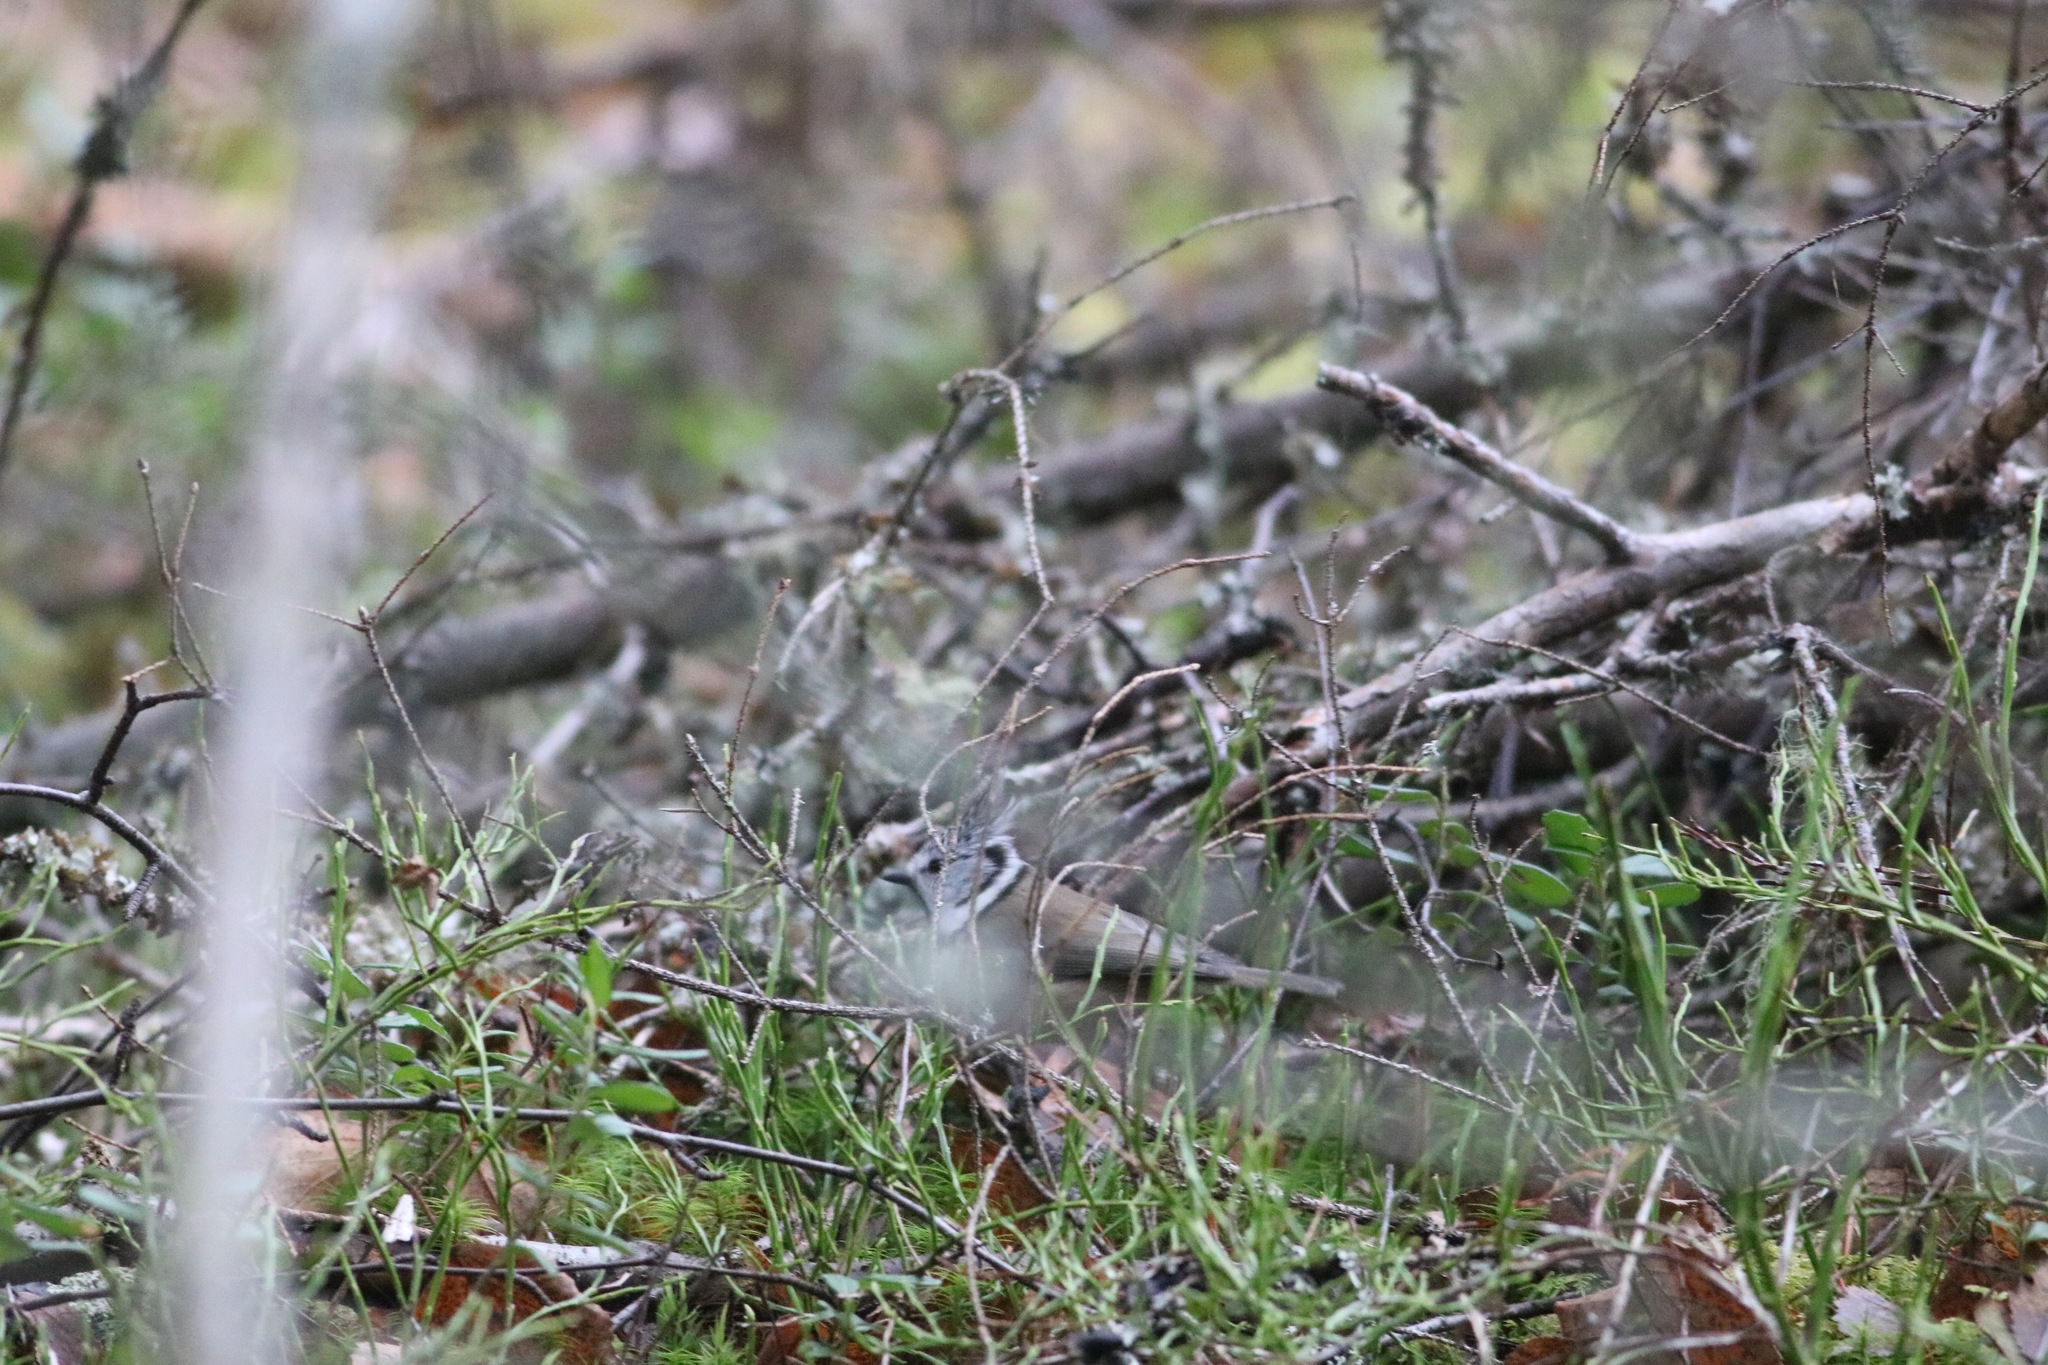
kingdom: Animalia
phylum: Chordata
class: Aves
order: Passeriformes
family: Paridae
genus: Lophophanes
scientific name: Lophophanes cristatus
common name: European crested tit
